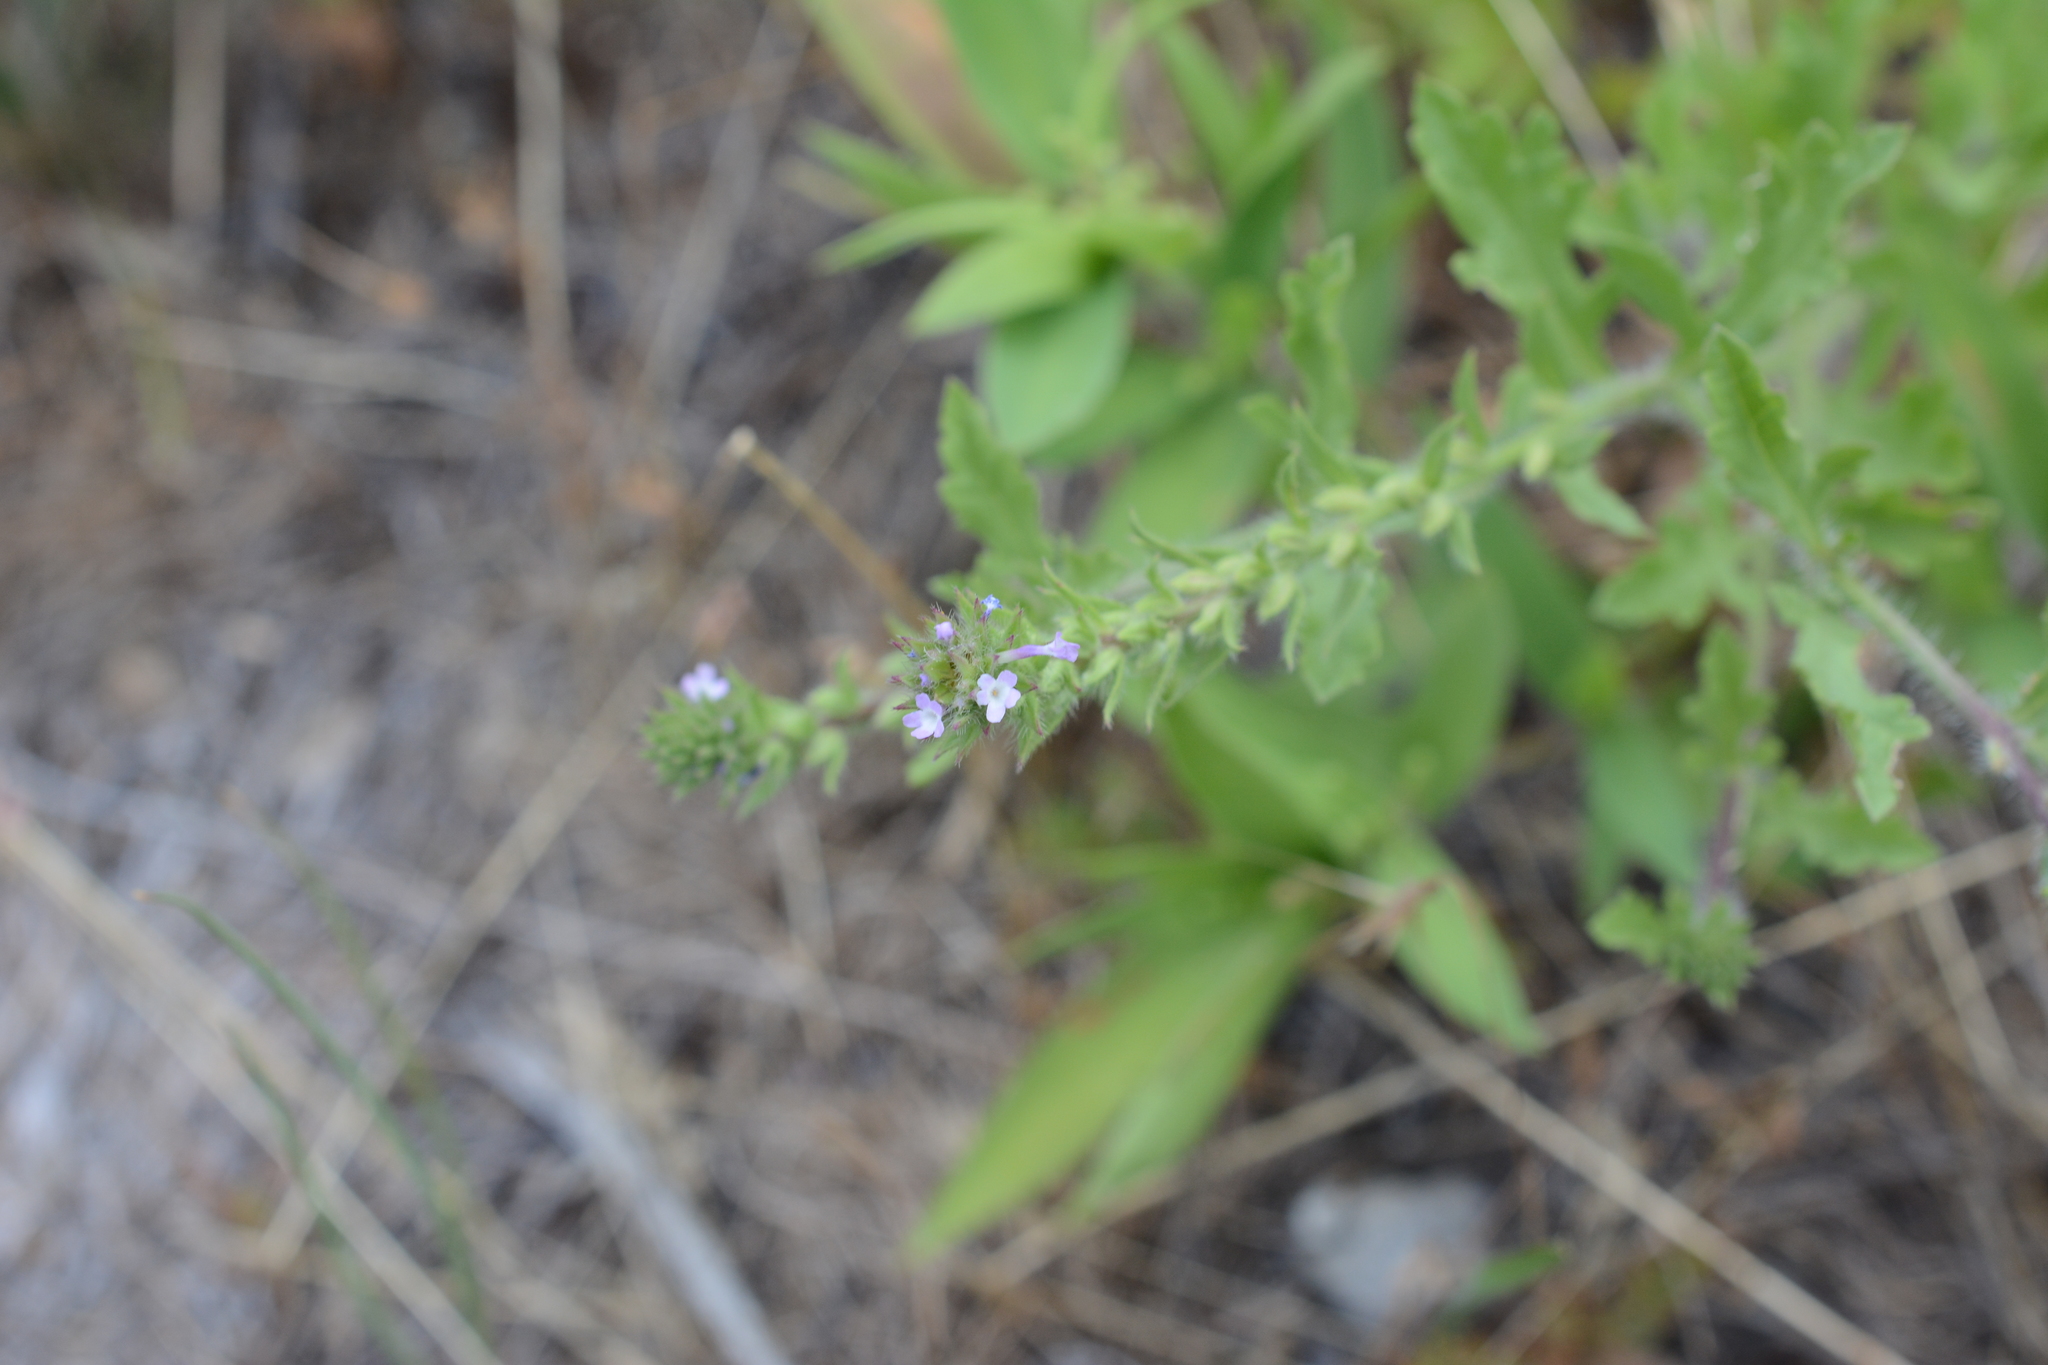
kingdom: Plantae
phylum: Tracheophyta
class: Magnoliopsida
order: Lamiales
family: Verbenaceae
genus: Verbena
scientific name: Verbena bracteata
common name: Bracted vervain
